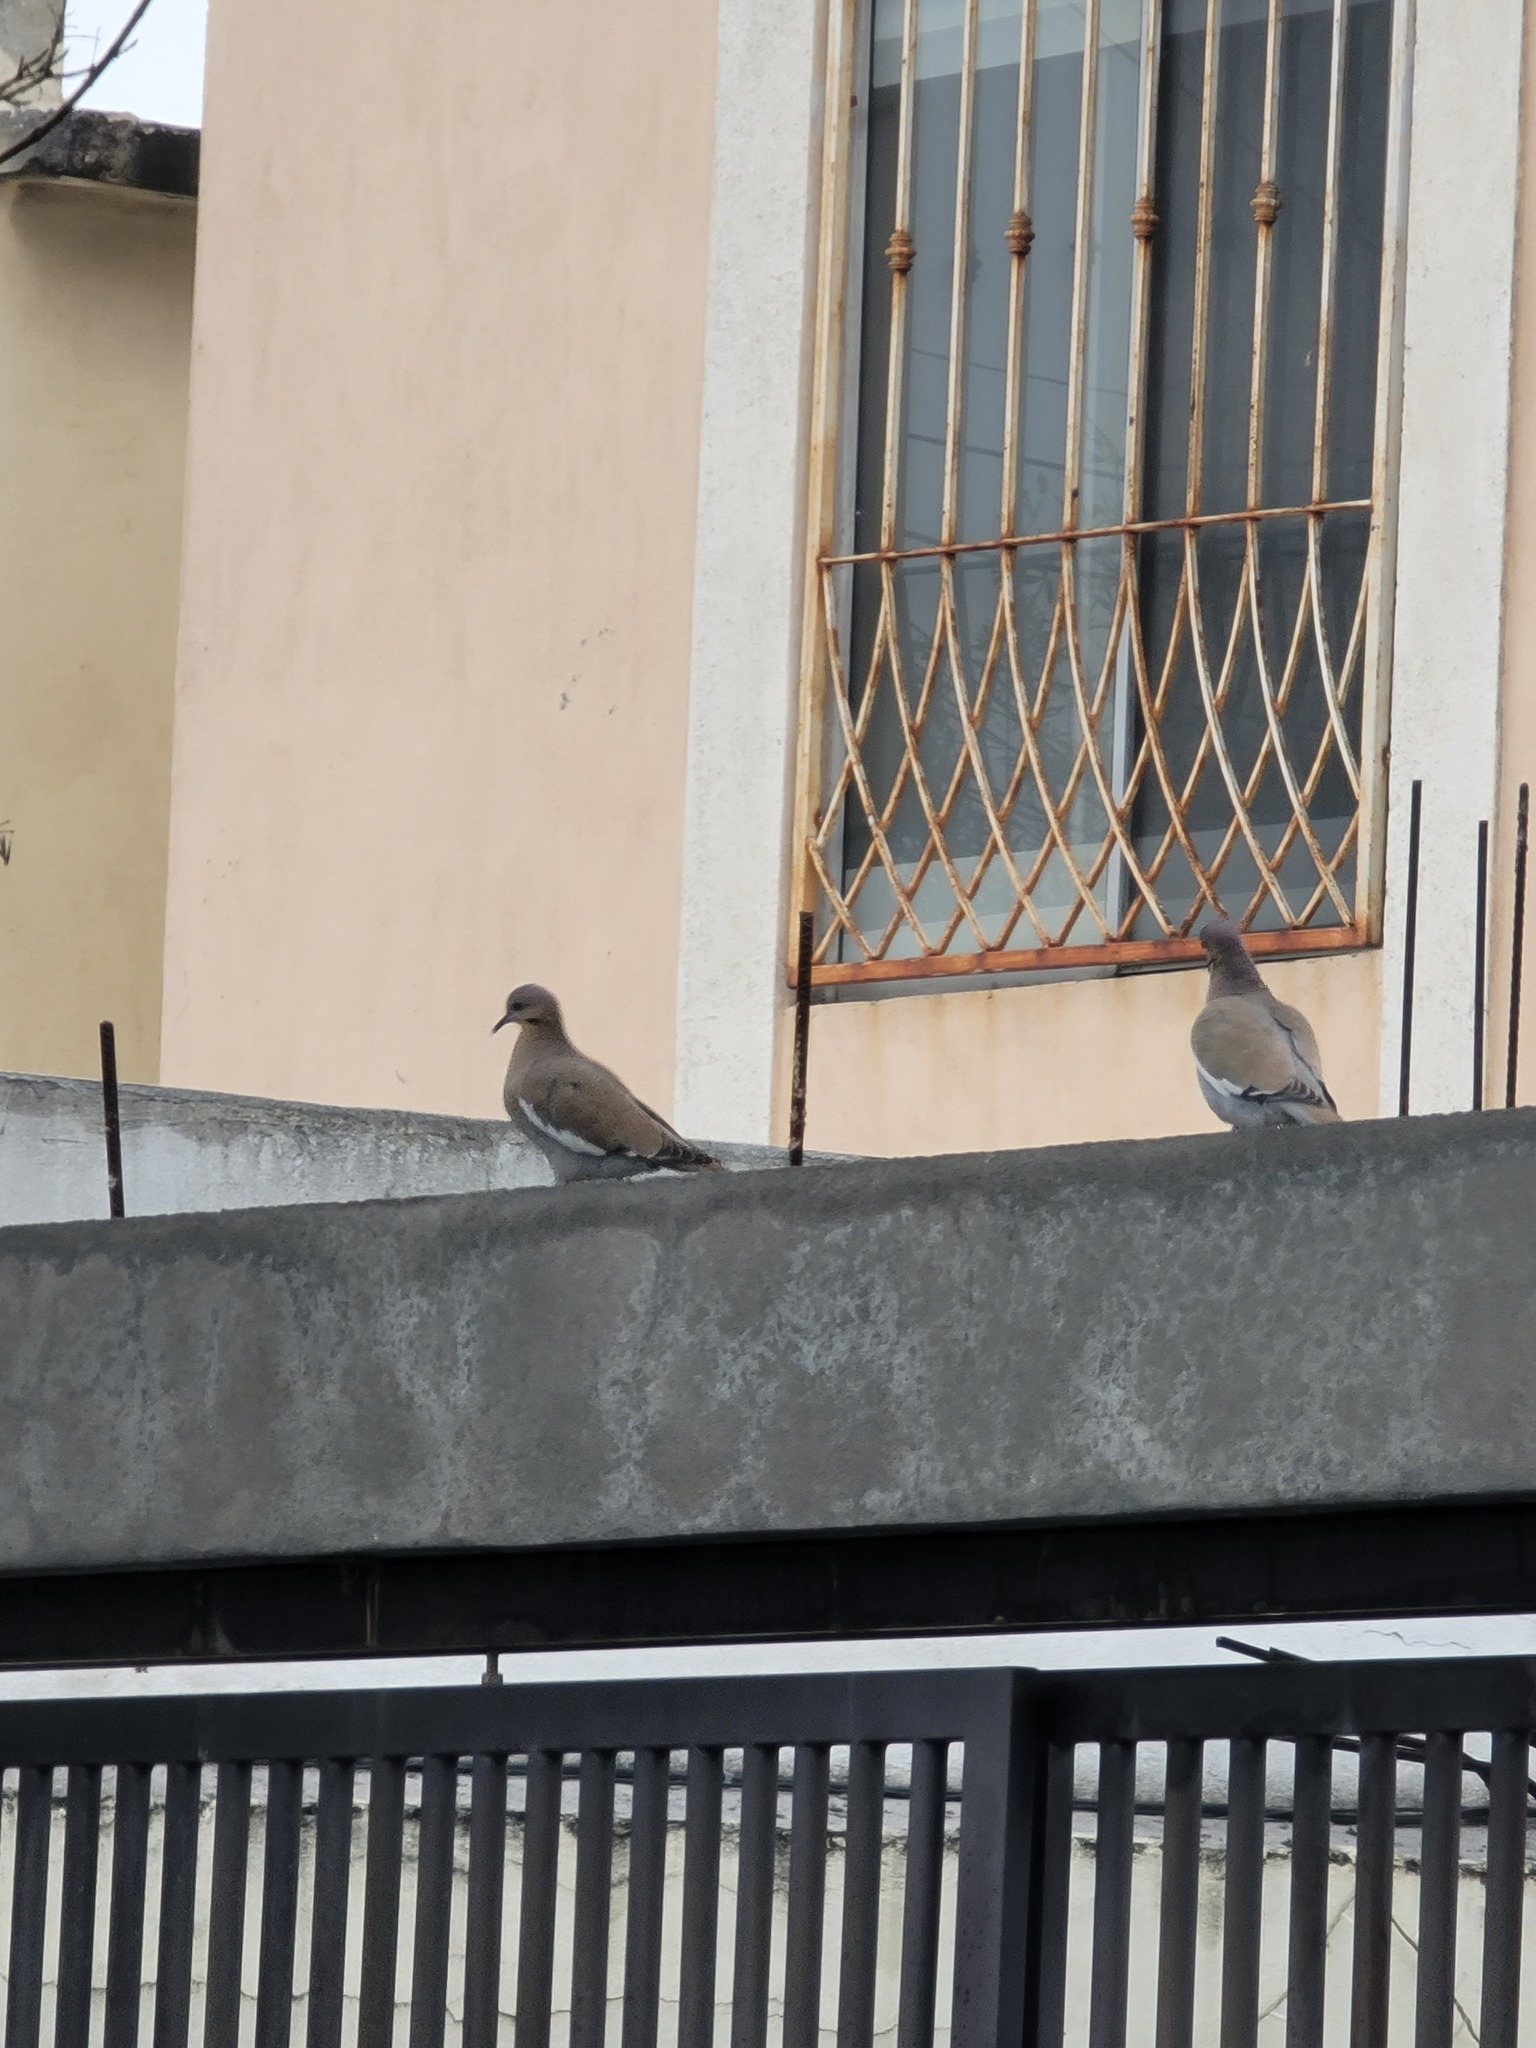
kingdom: Animalia
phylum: Chordata
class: Aves
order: Columbiformes
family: Columbidae
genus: Zenaida
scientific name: Zenaida asiatica
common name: White-winged dove
